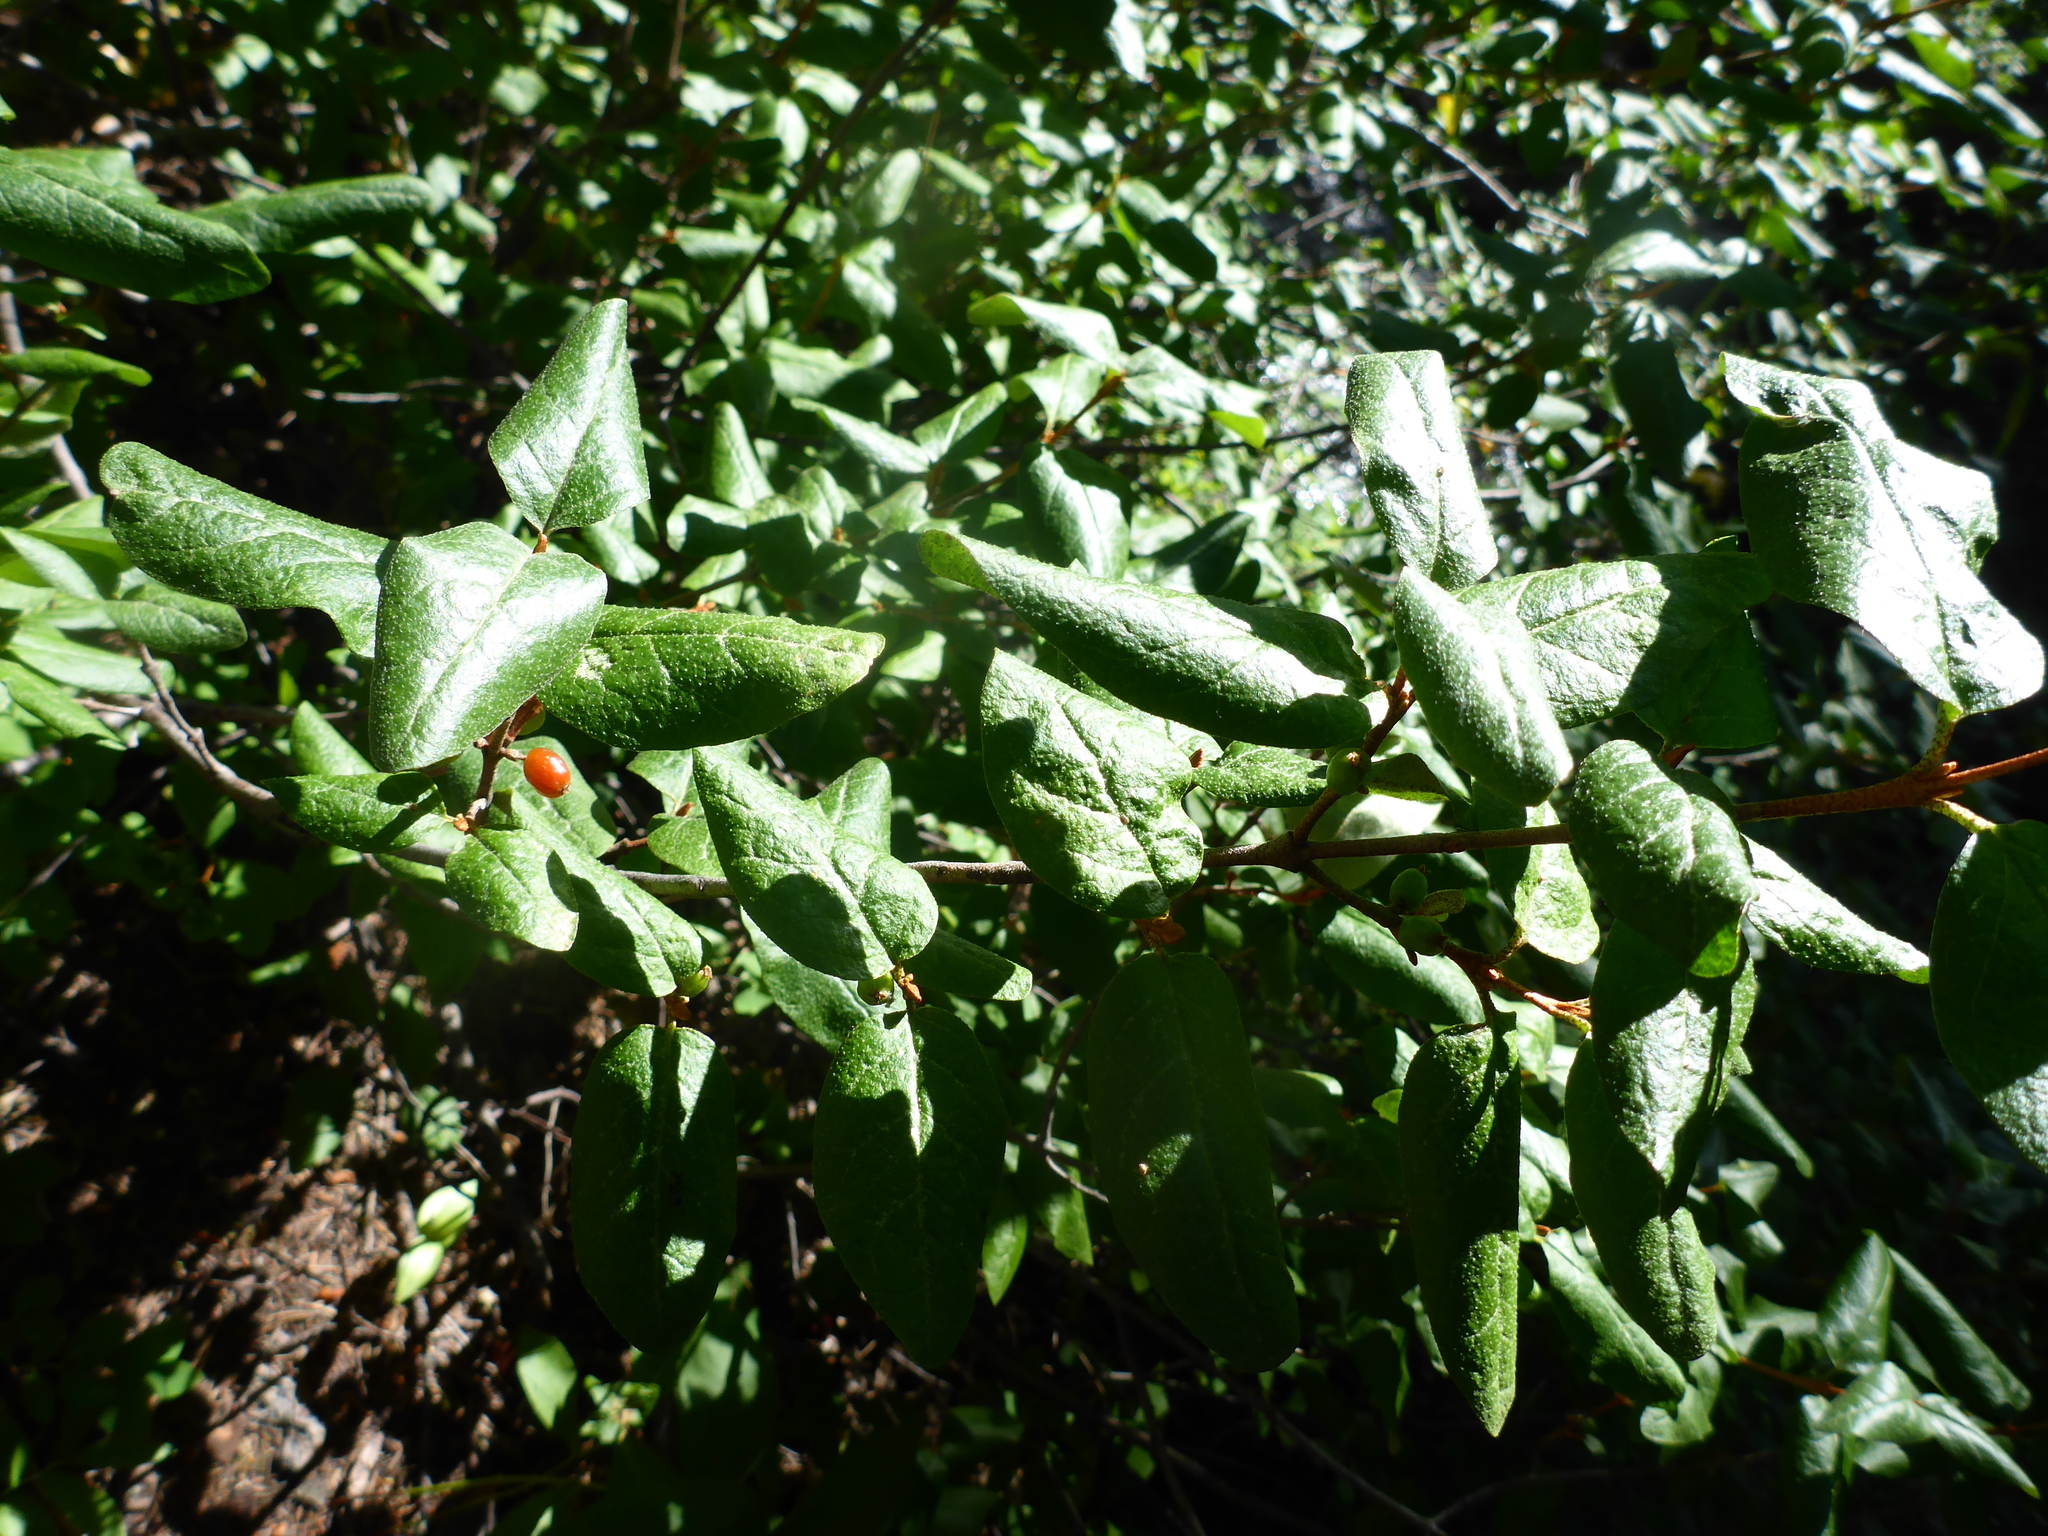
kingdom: Plantae
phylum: Tracheophyta
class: Magnoliopsida
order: Rosales
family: Elaeagnaceae
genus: Shepherdia
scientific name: Shepherdia canadensis
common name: Soapberry
